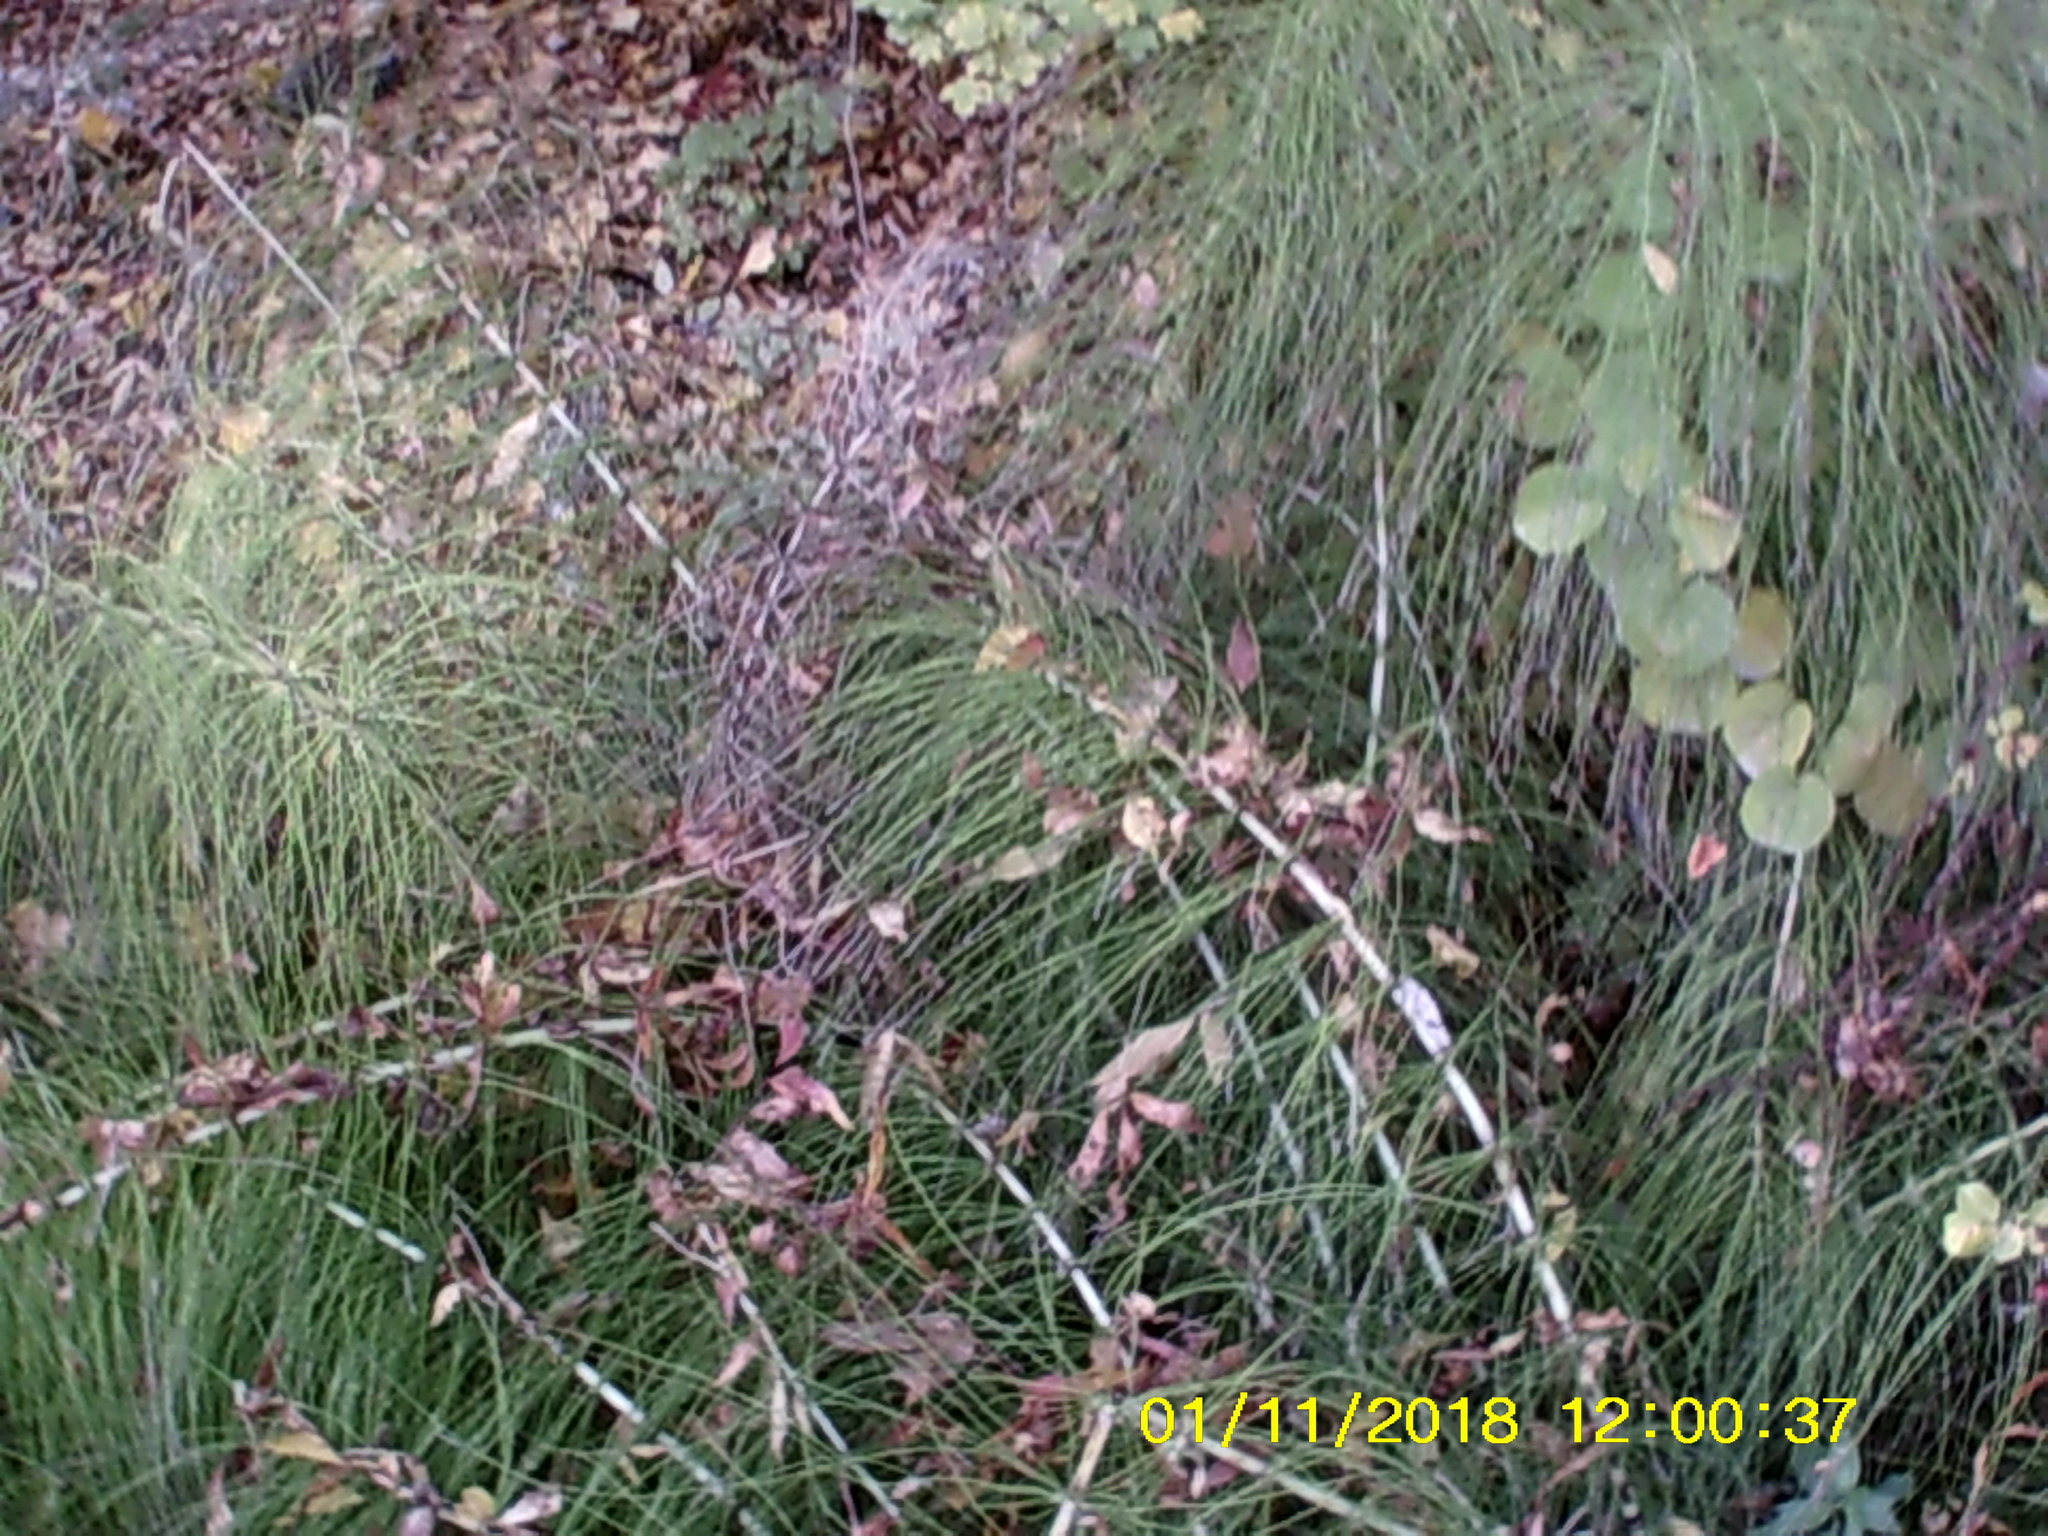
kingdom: Plantae
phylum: Tracheophyta
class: Polypodiopsida
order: Equisetales
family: Equisetaceae
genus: Equisetum
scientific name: Equisetum telmateia
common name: Great horsetail
